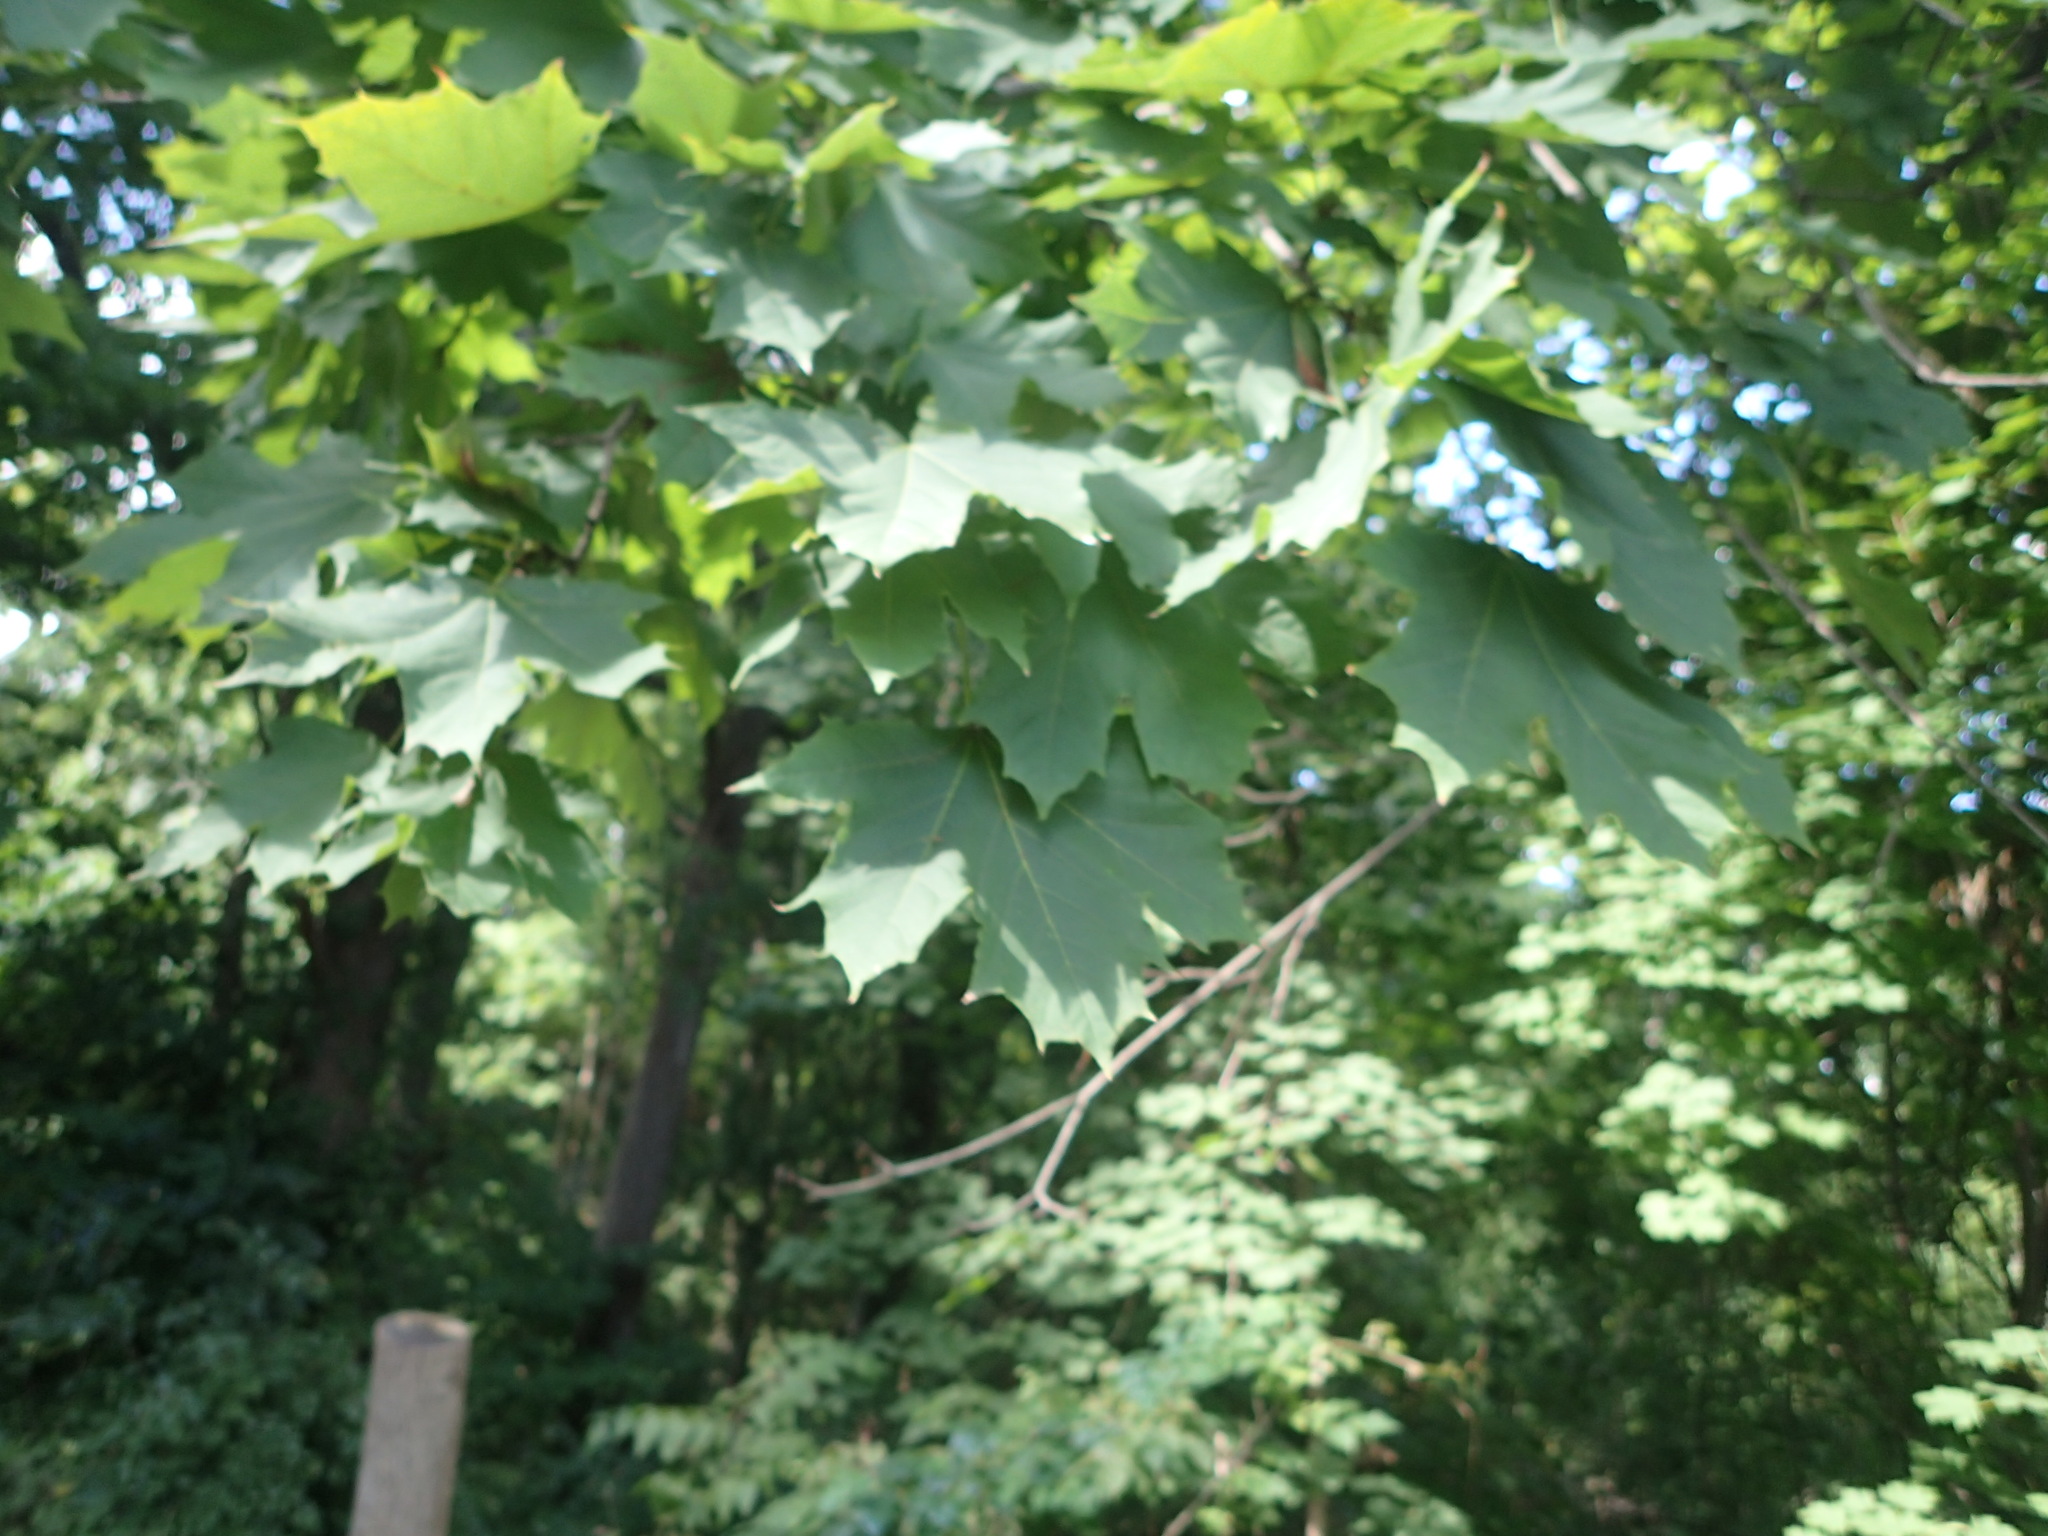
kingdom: Plantae
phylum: Tracheophyta
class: Magnoliopsida
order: Sapindales
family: Sapindaceae
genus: Acer
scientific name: Acer platanoides
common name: Norway maple
